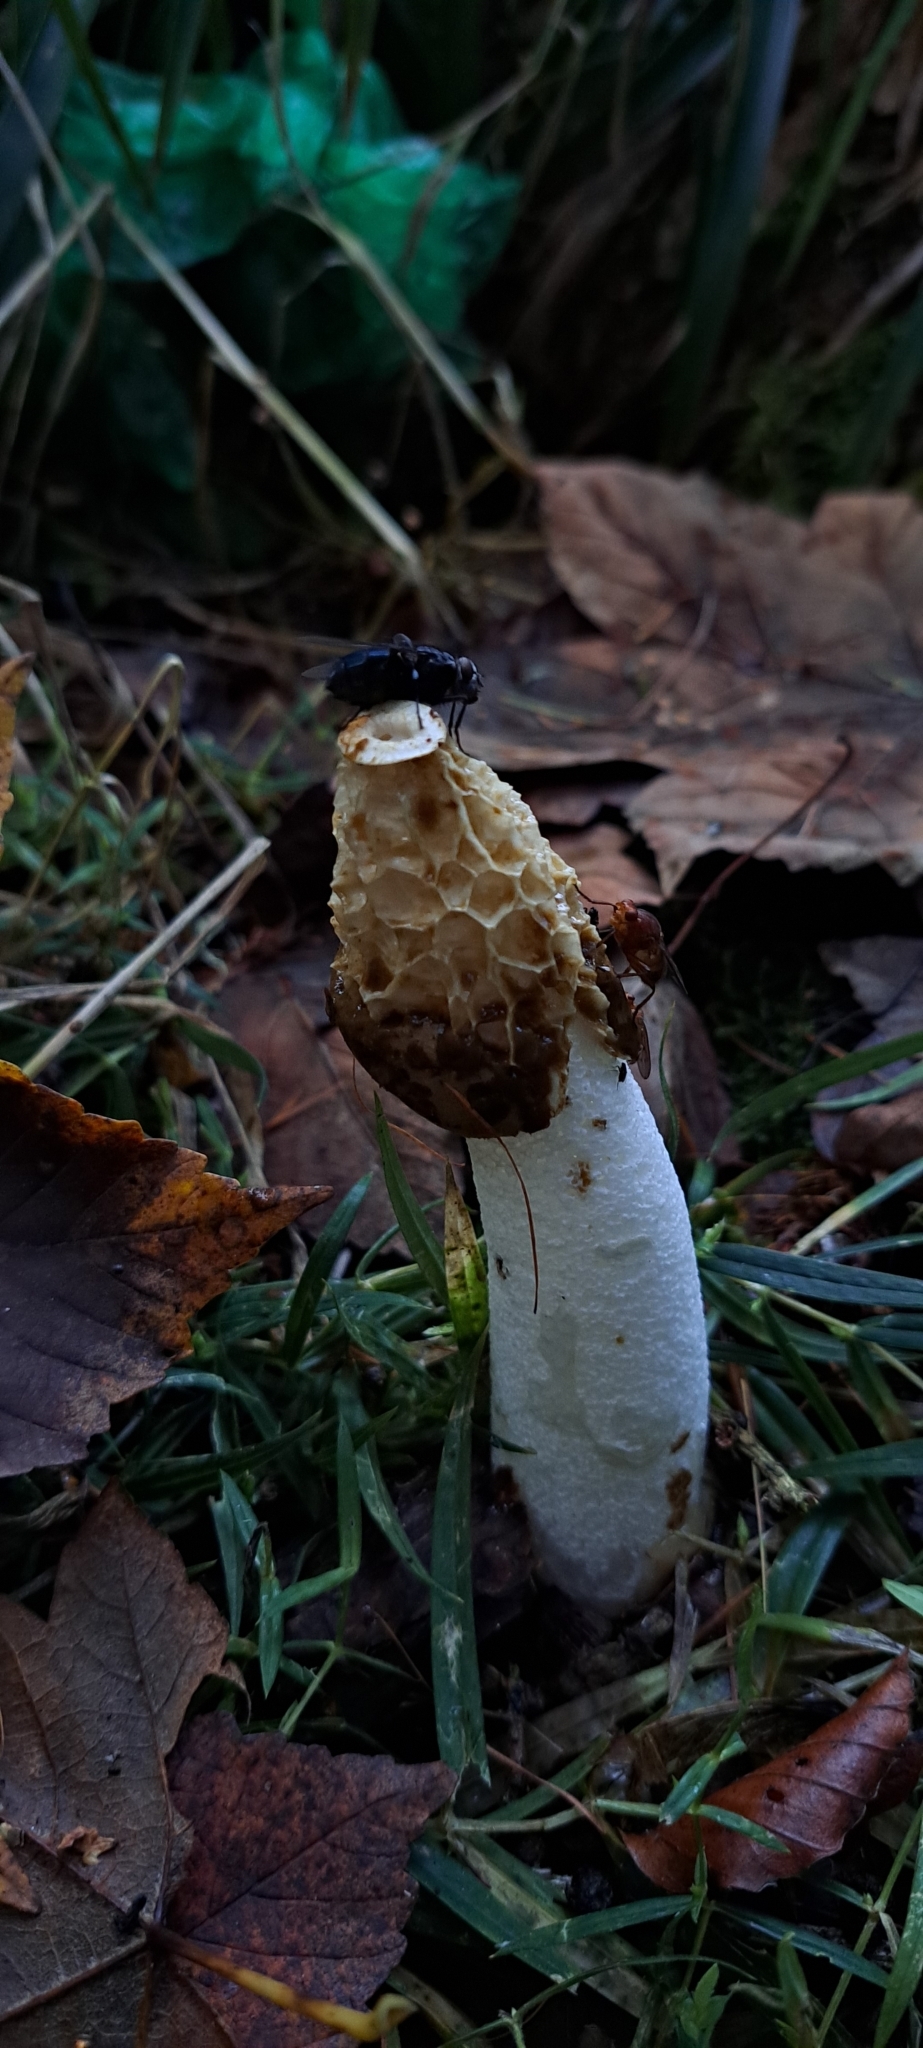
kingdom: Fungi
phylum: Basidiomycota
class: Agaricomycetes
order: Phallales
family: Phallaceae
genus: Phallus
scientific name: Phallus impudicus
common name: Common stinkhorn
